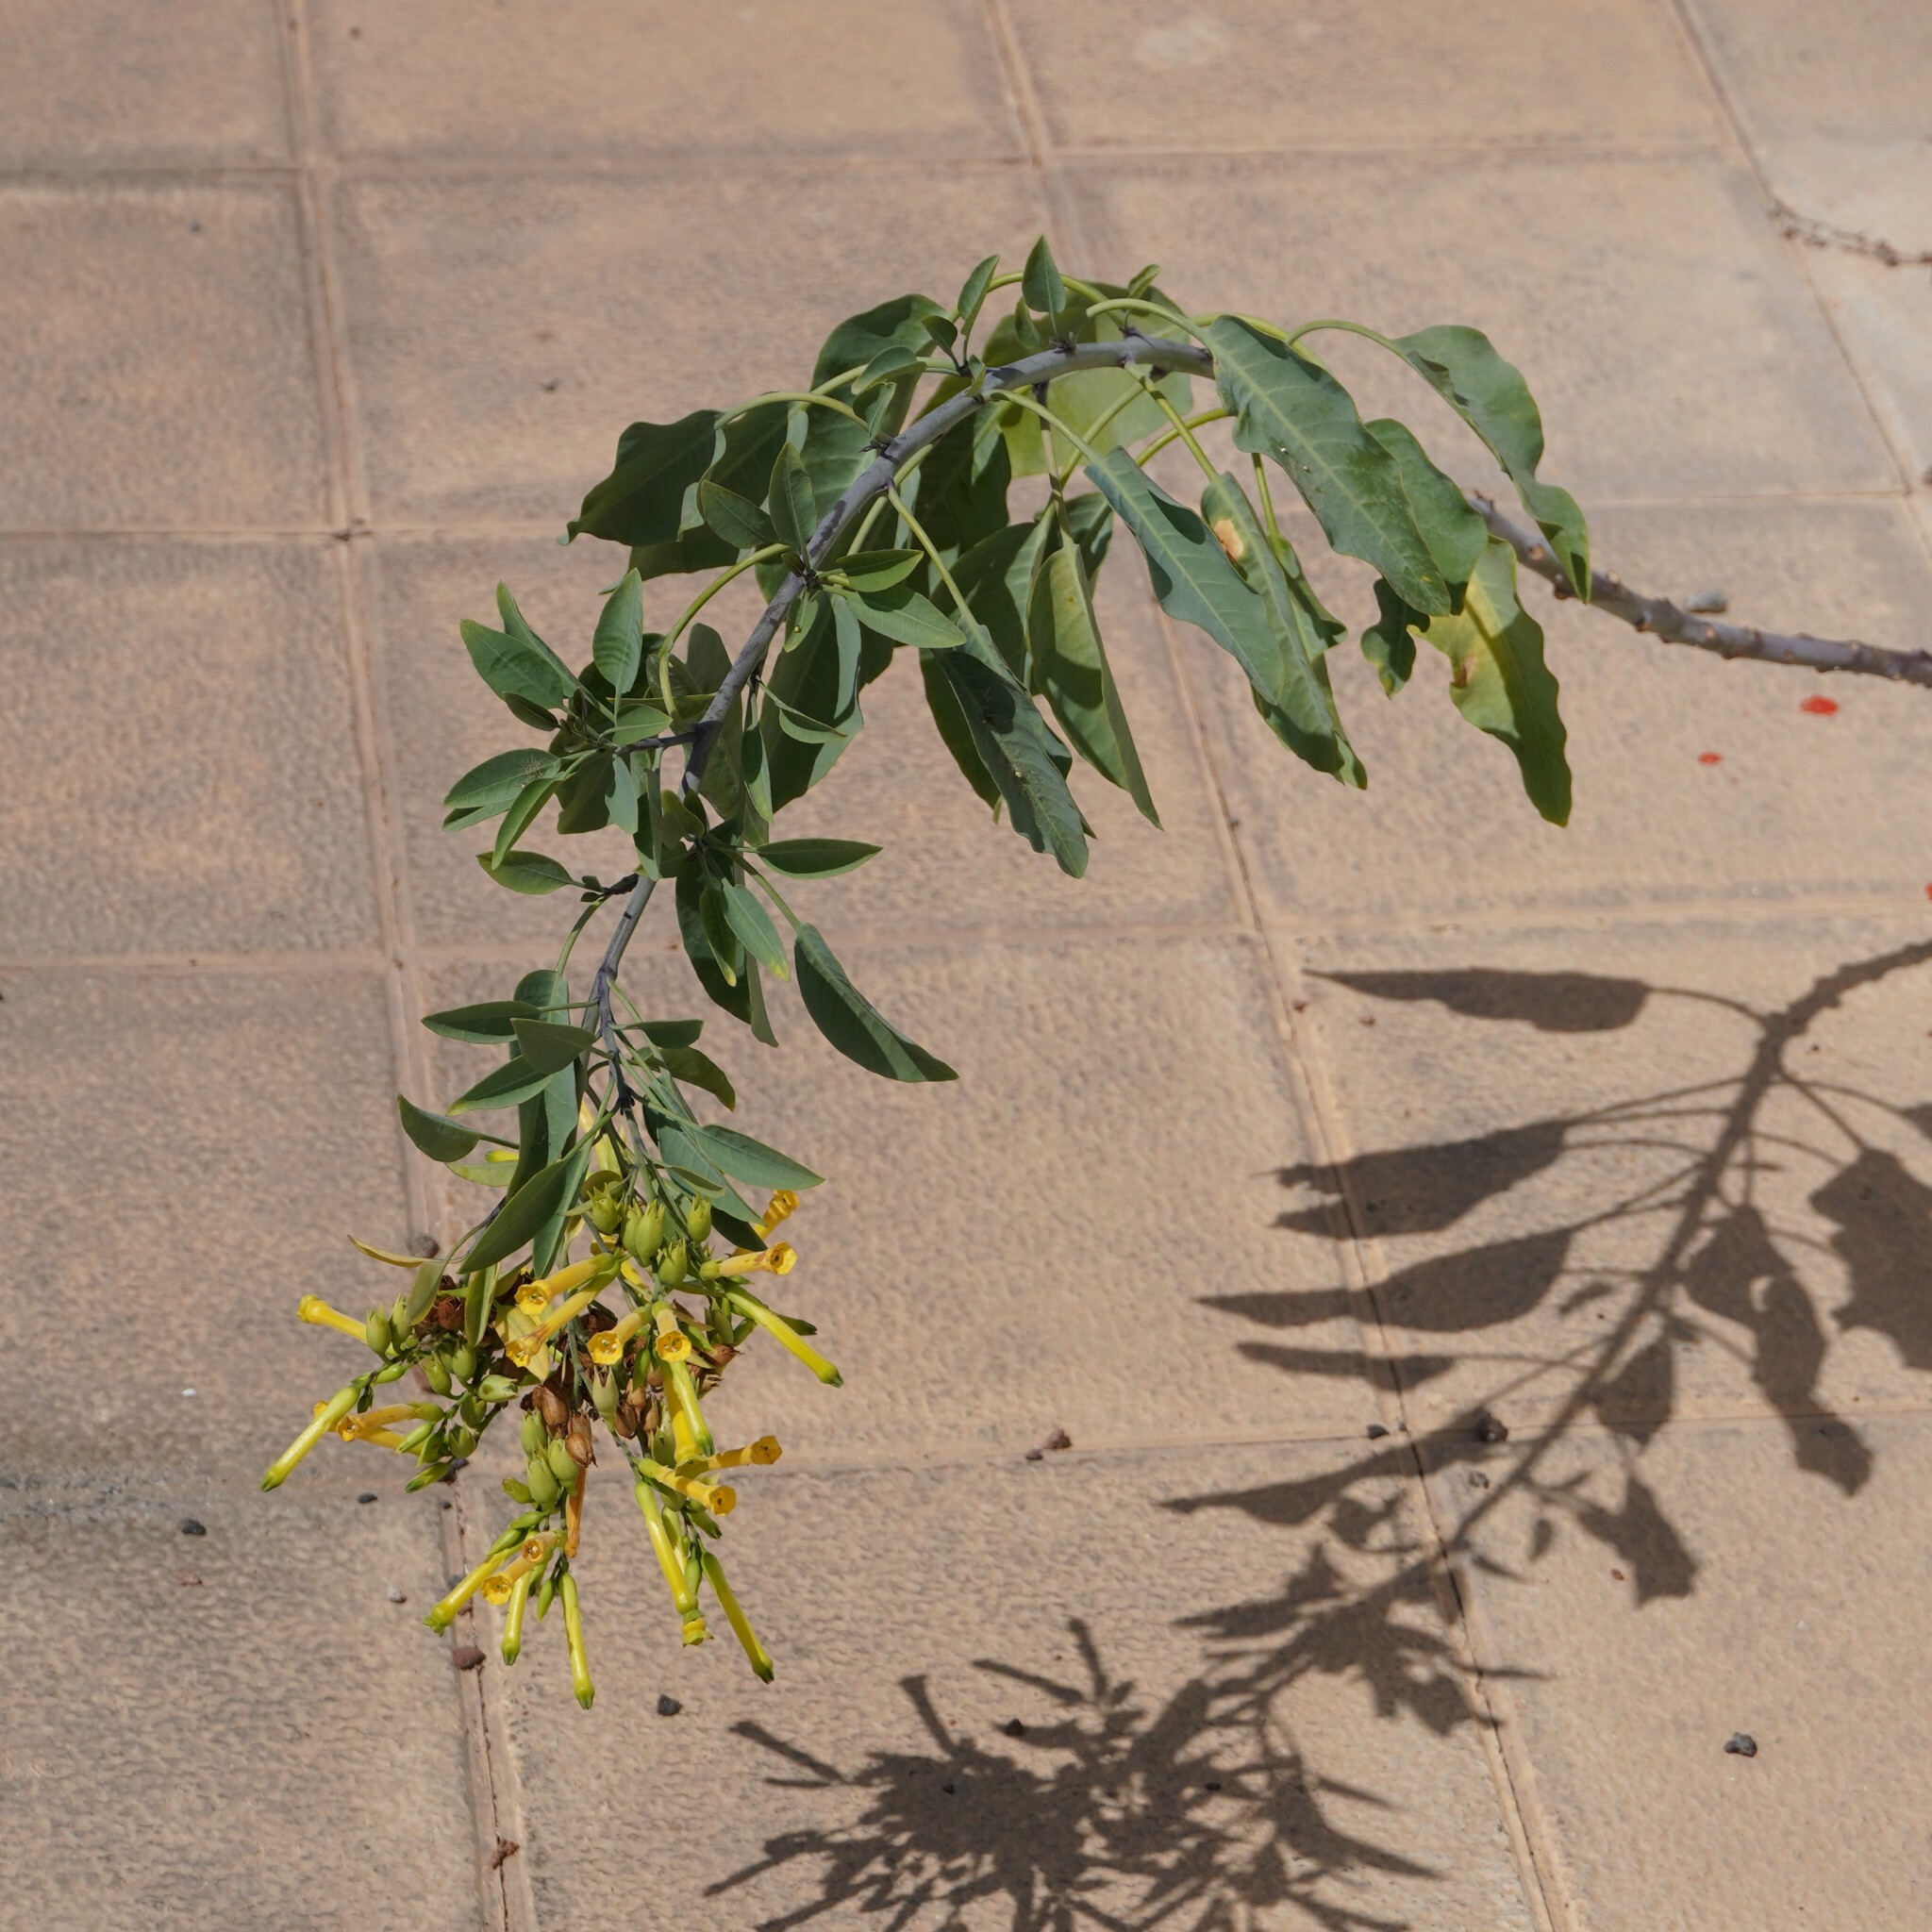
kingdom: Plantae
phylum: Tracheophyta
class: Magnoliopsida
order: Solanales
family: Solanaceae
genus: Nicotiana
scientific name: Nicotiana glauca
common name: Tree tobacco
